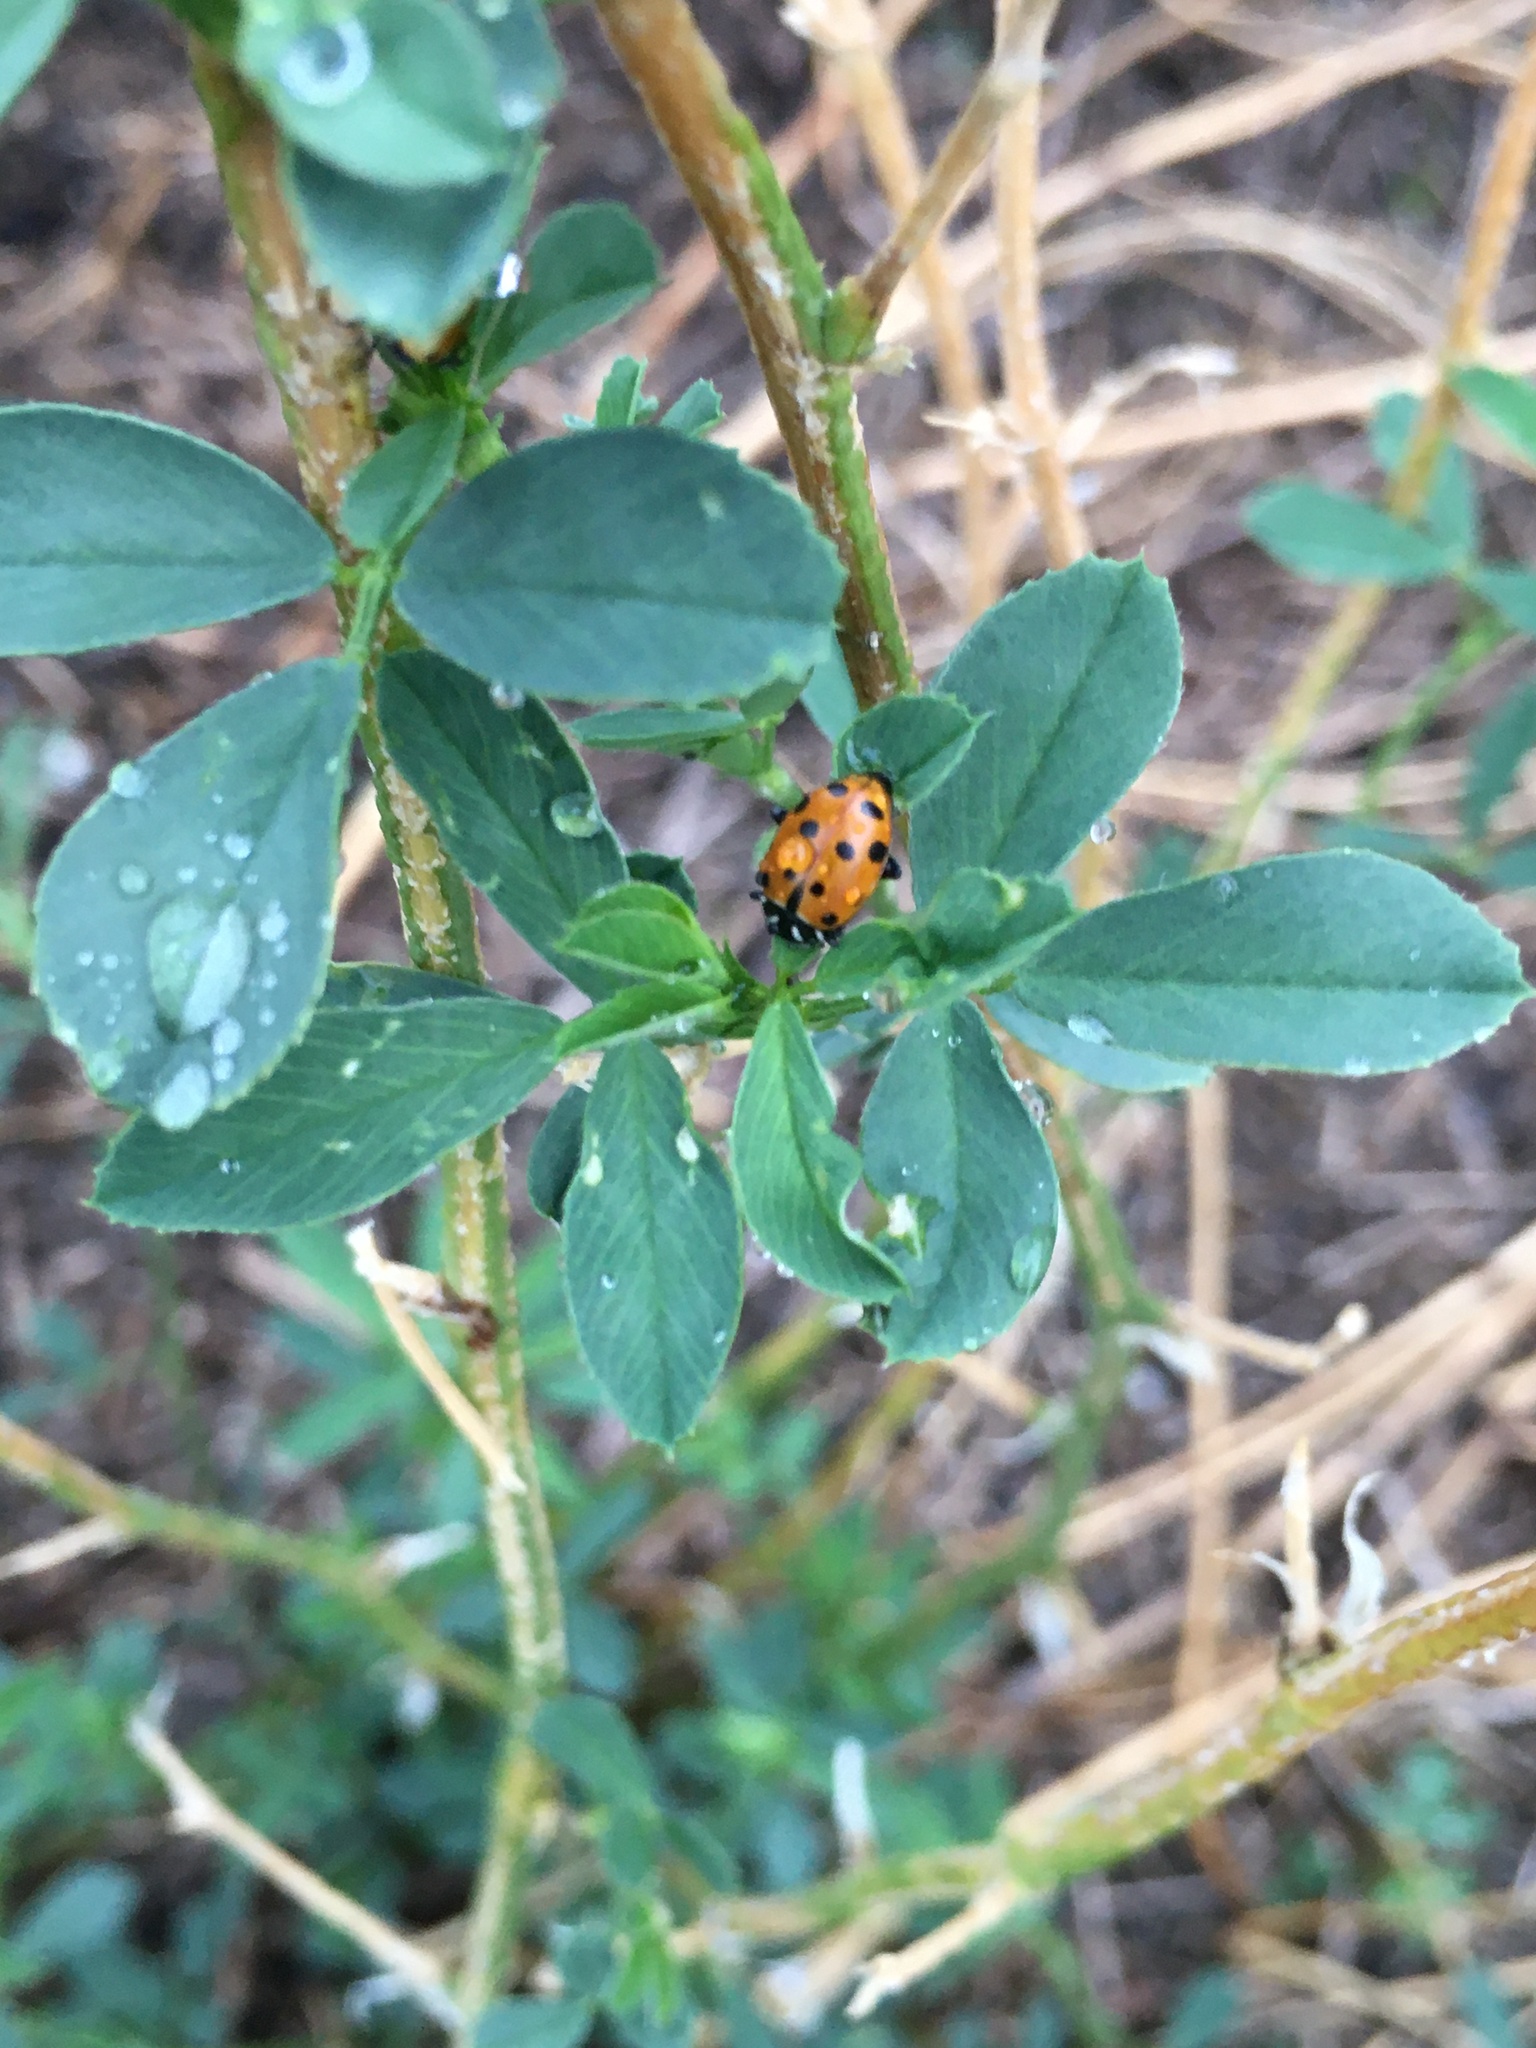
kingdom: Animalia
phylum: Arthropoda
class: Insecta
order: Coleoptera
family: Coccinellidae
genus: Hippodamia
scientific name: Hippodamia convergens
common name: Convergent lady beetle
